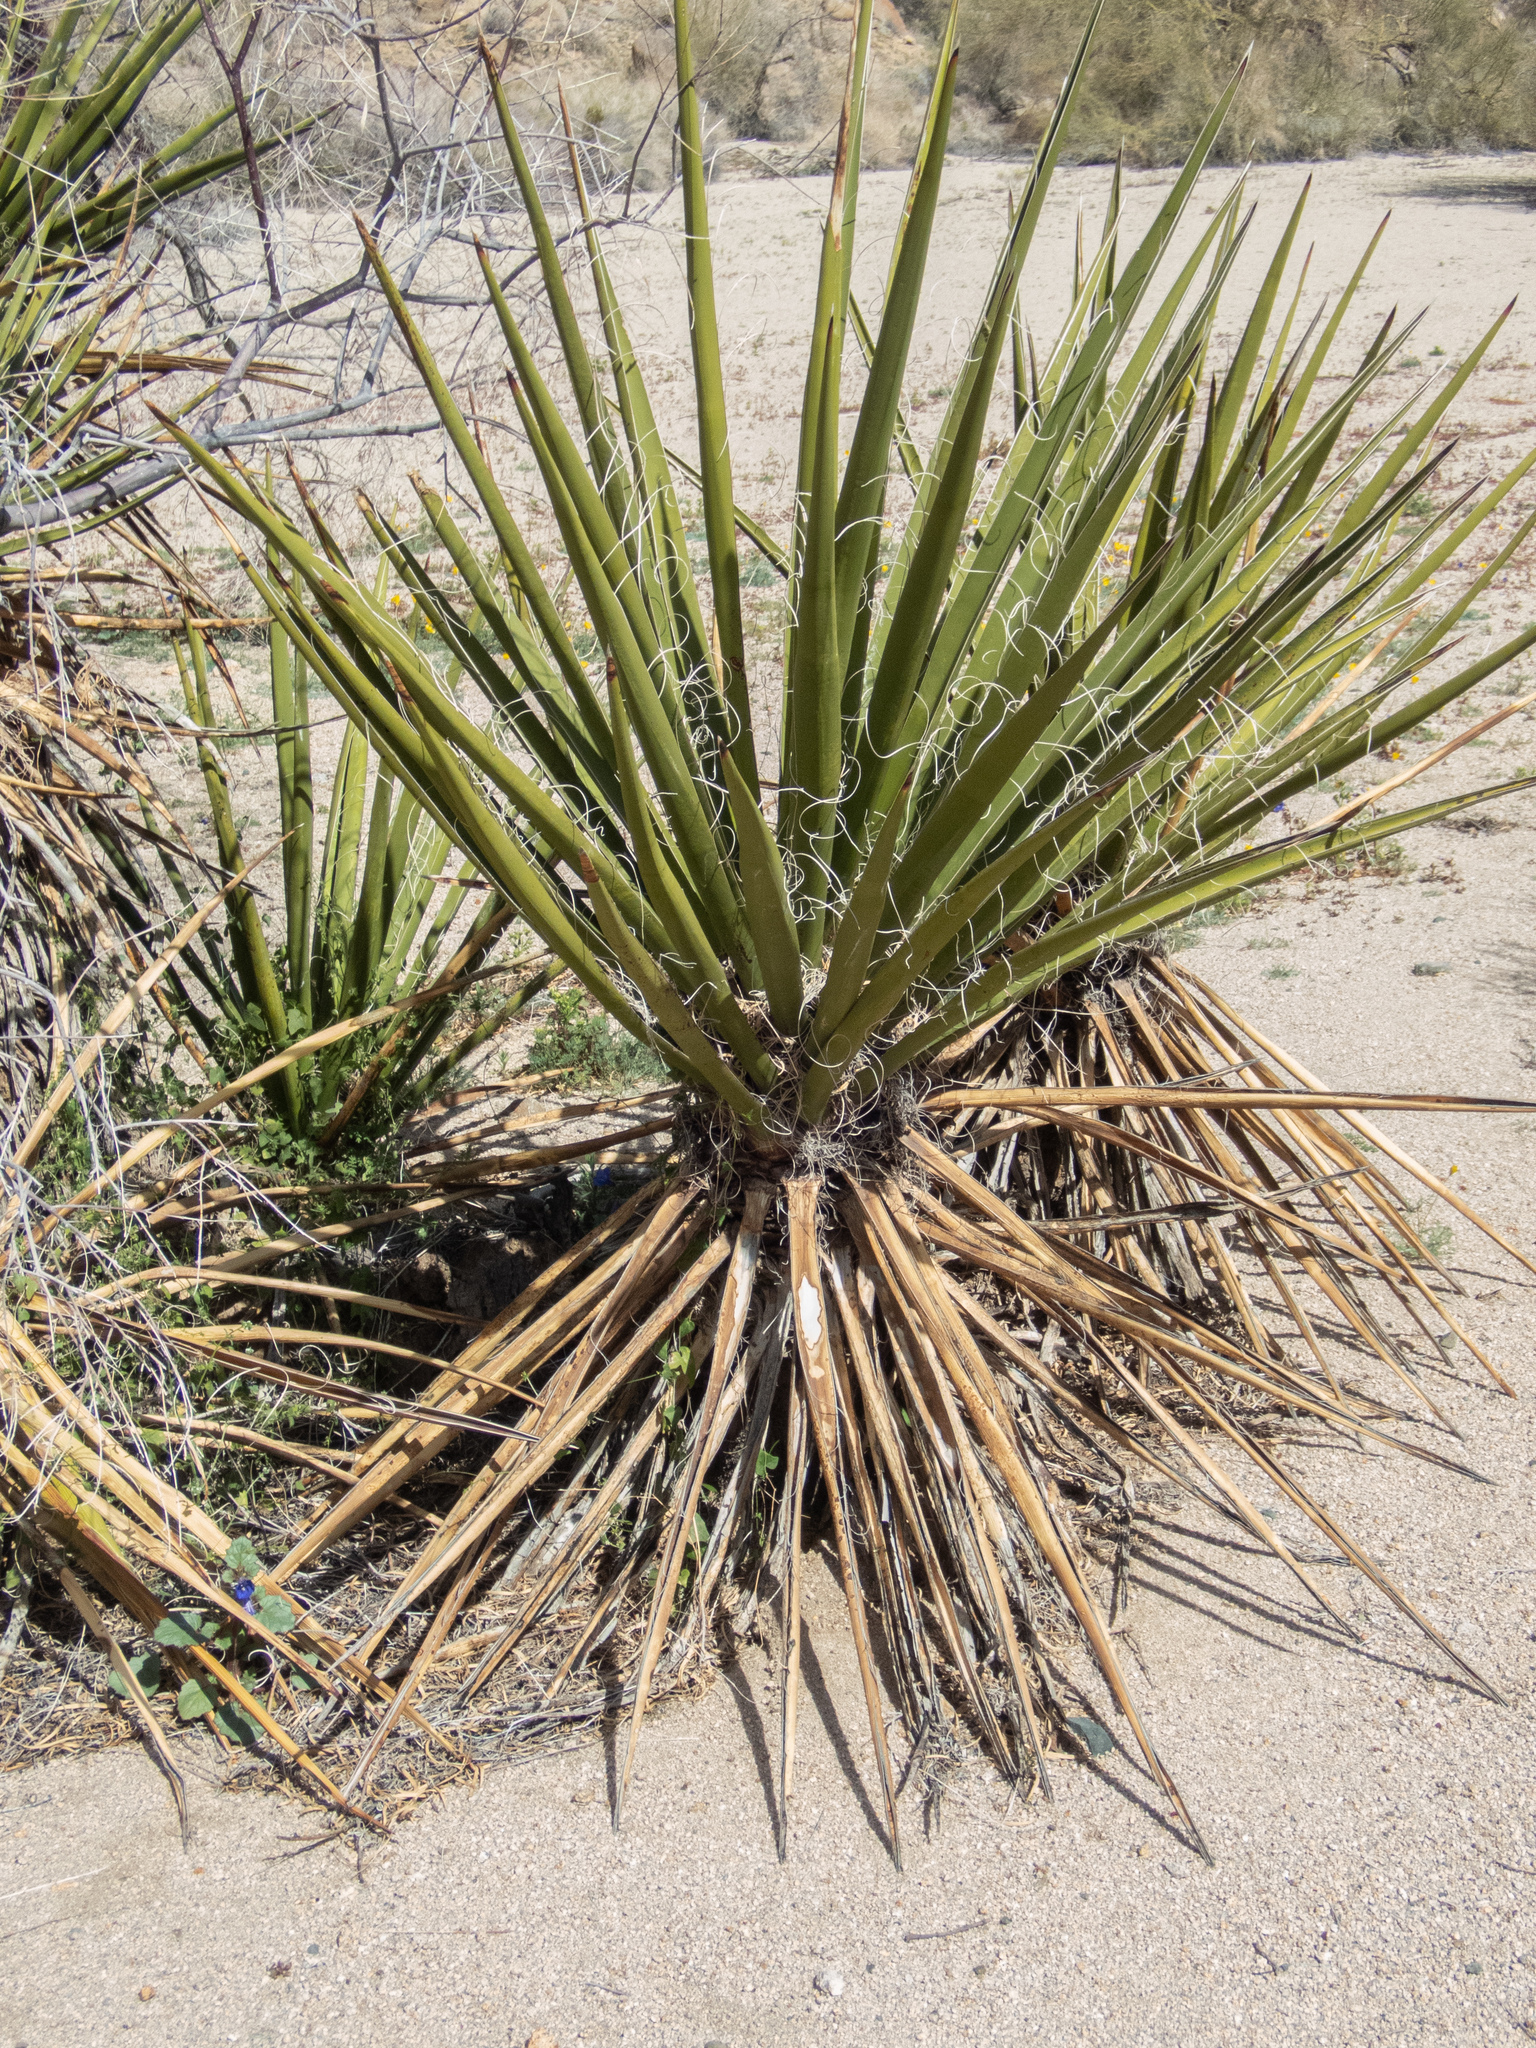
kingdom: Plantae
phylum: Tracheophyta
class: Liliopsida
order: Asparagales
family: Asparagaceae
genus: Yucca
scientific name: Yucca schidigera
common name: Mojave yucca
